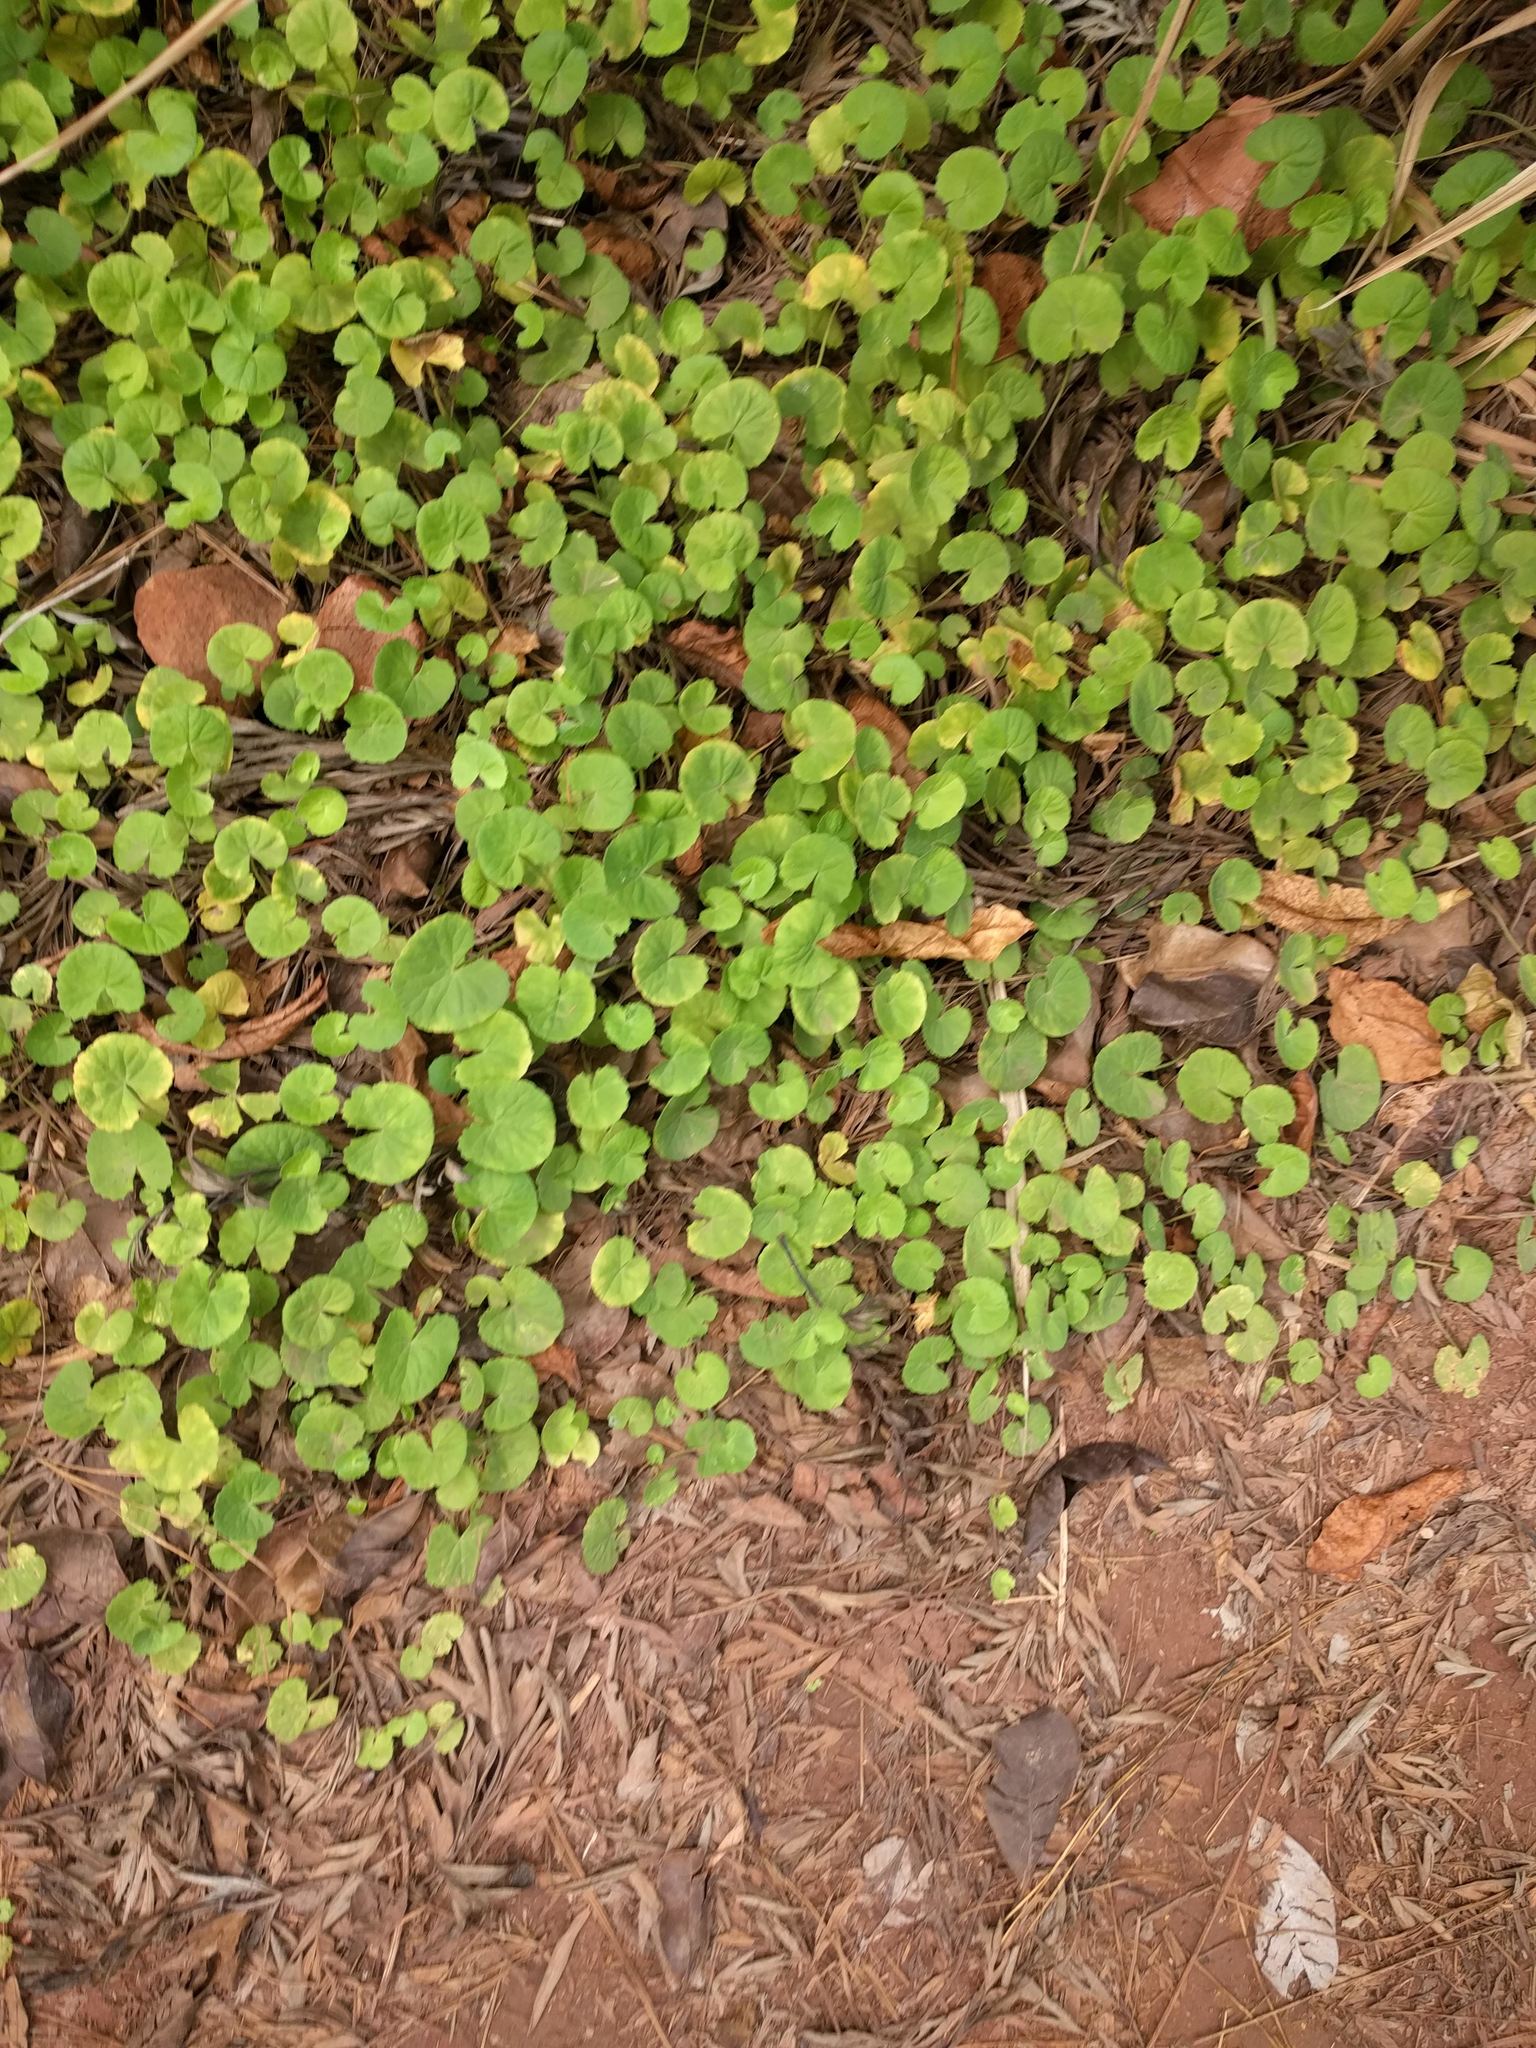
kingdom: Plantae
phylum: Tracheophyta
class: Magnoliopsida
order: Apiales
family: Apiaceae
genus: Centella
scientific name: Centella asiatica
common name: Spadeleaf
